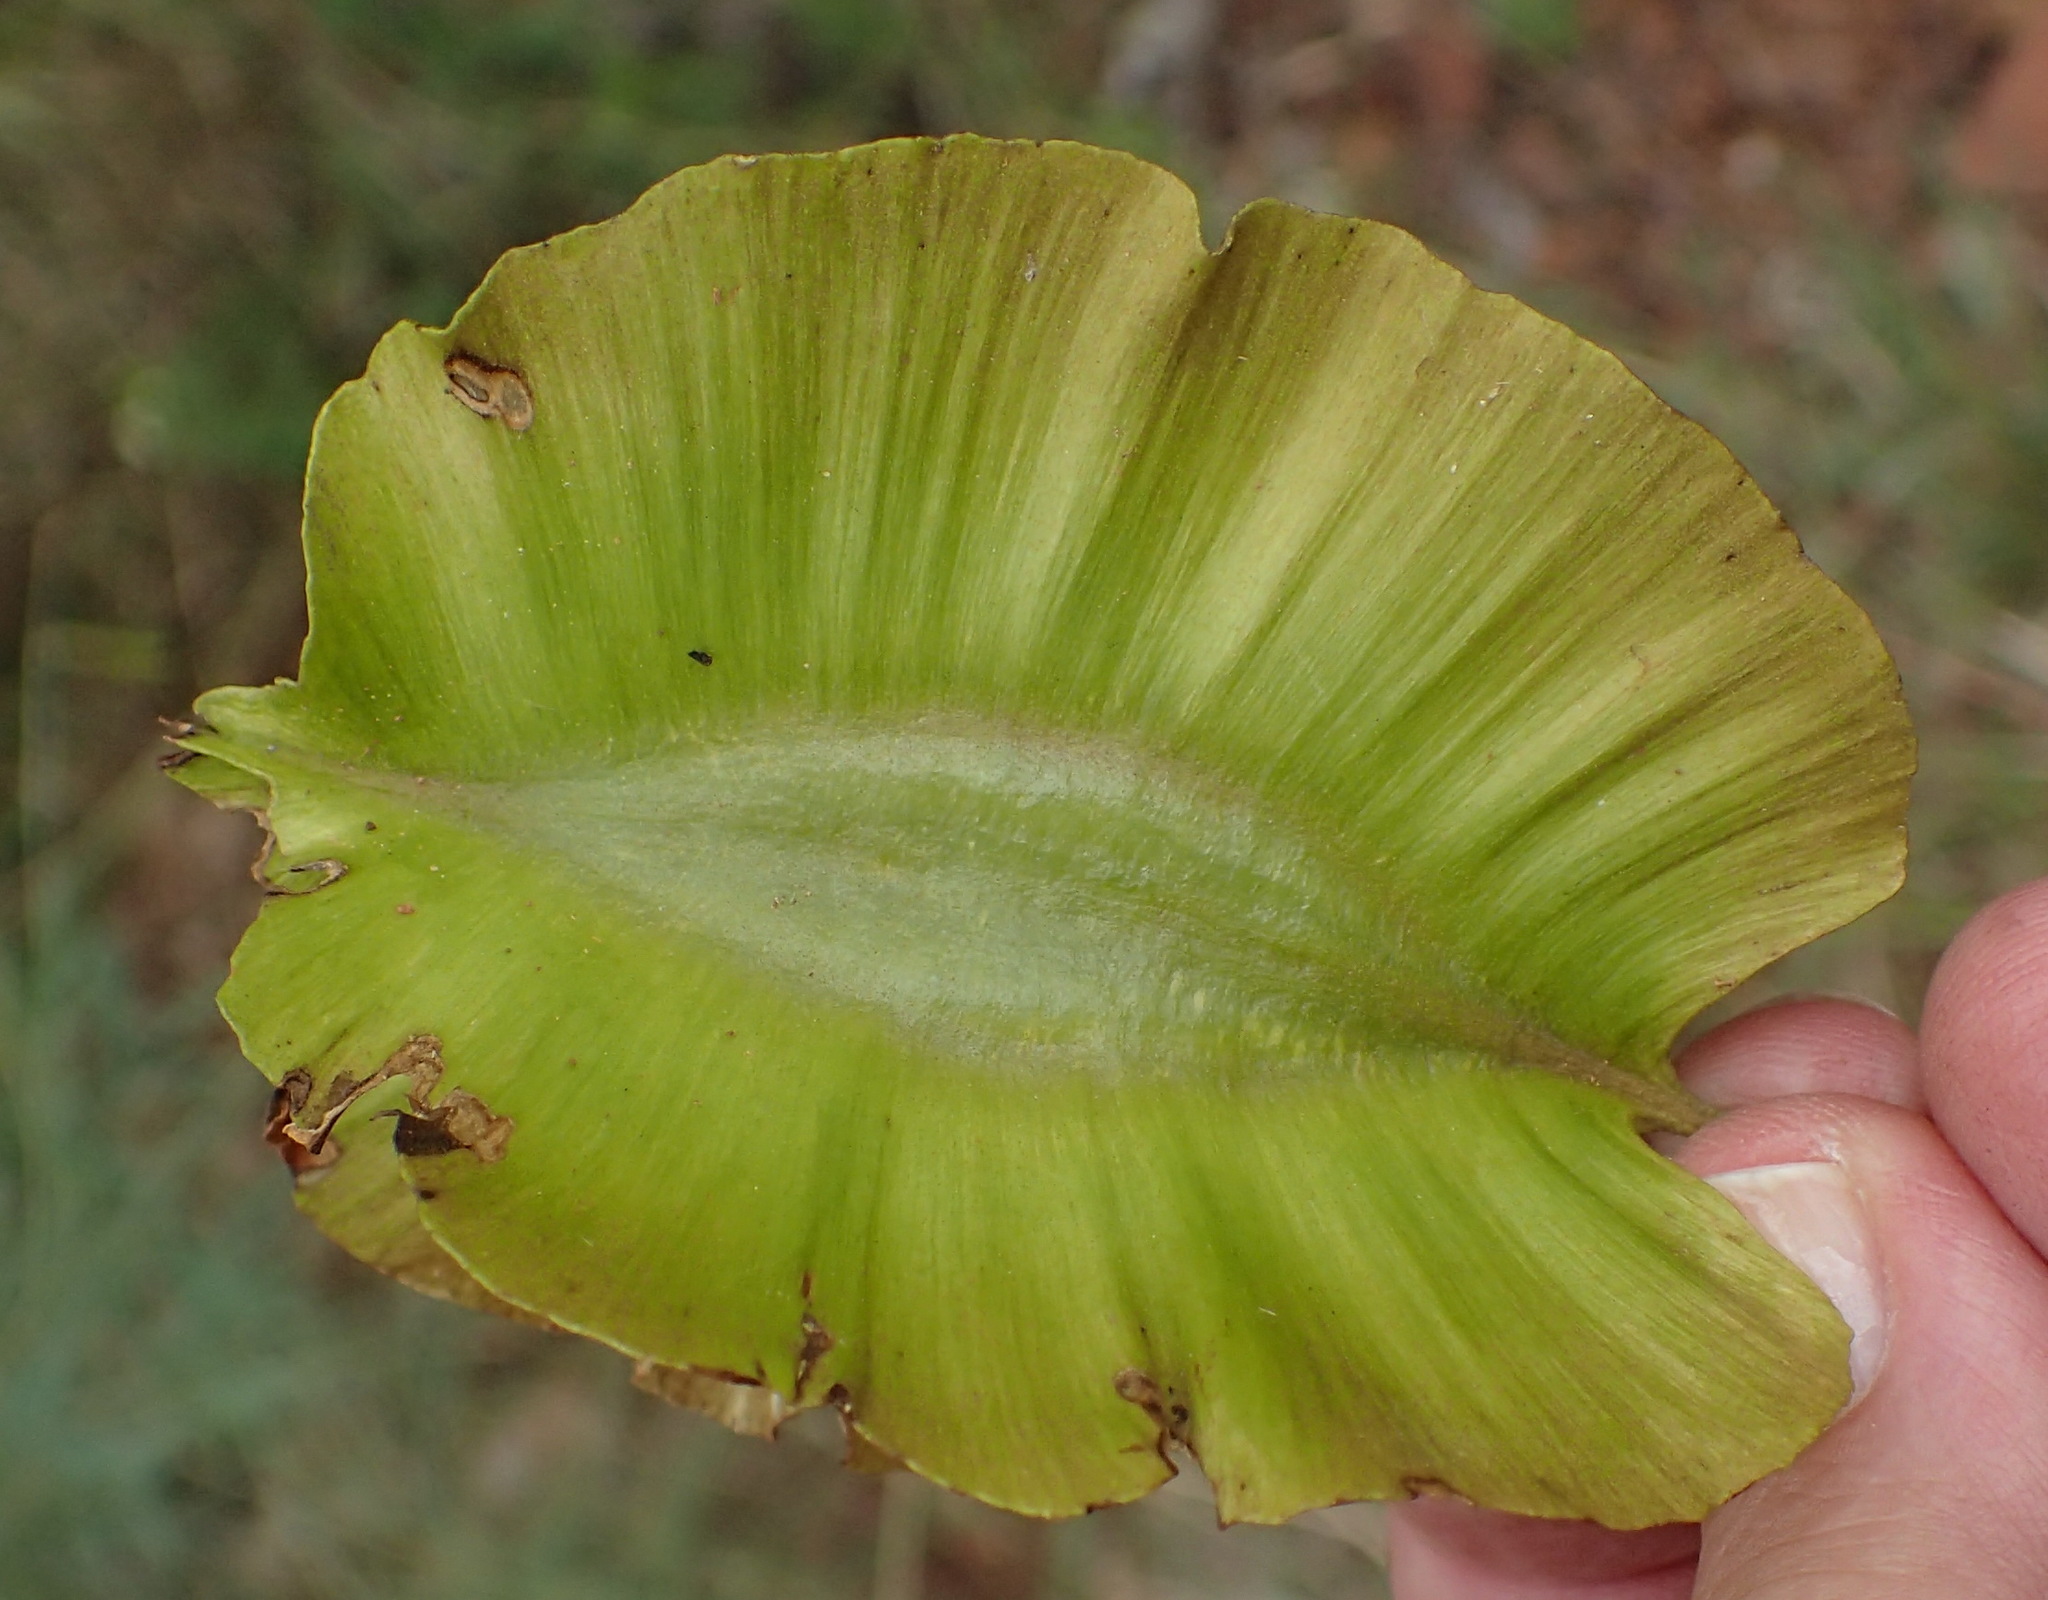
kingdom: Plantae
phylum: Tracheophyta
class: Magnoliopsida
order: Myrtales
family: Combretaceae
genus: Combretum
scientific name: Combretum zeyheri
